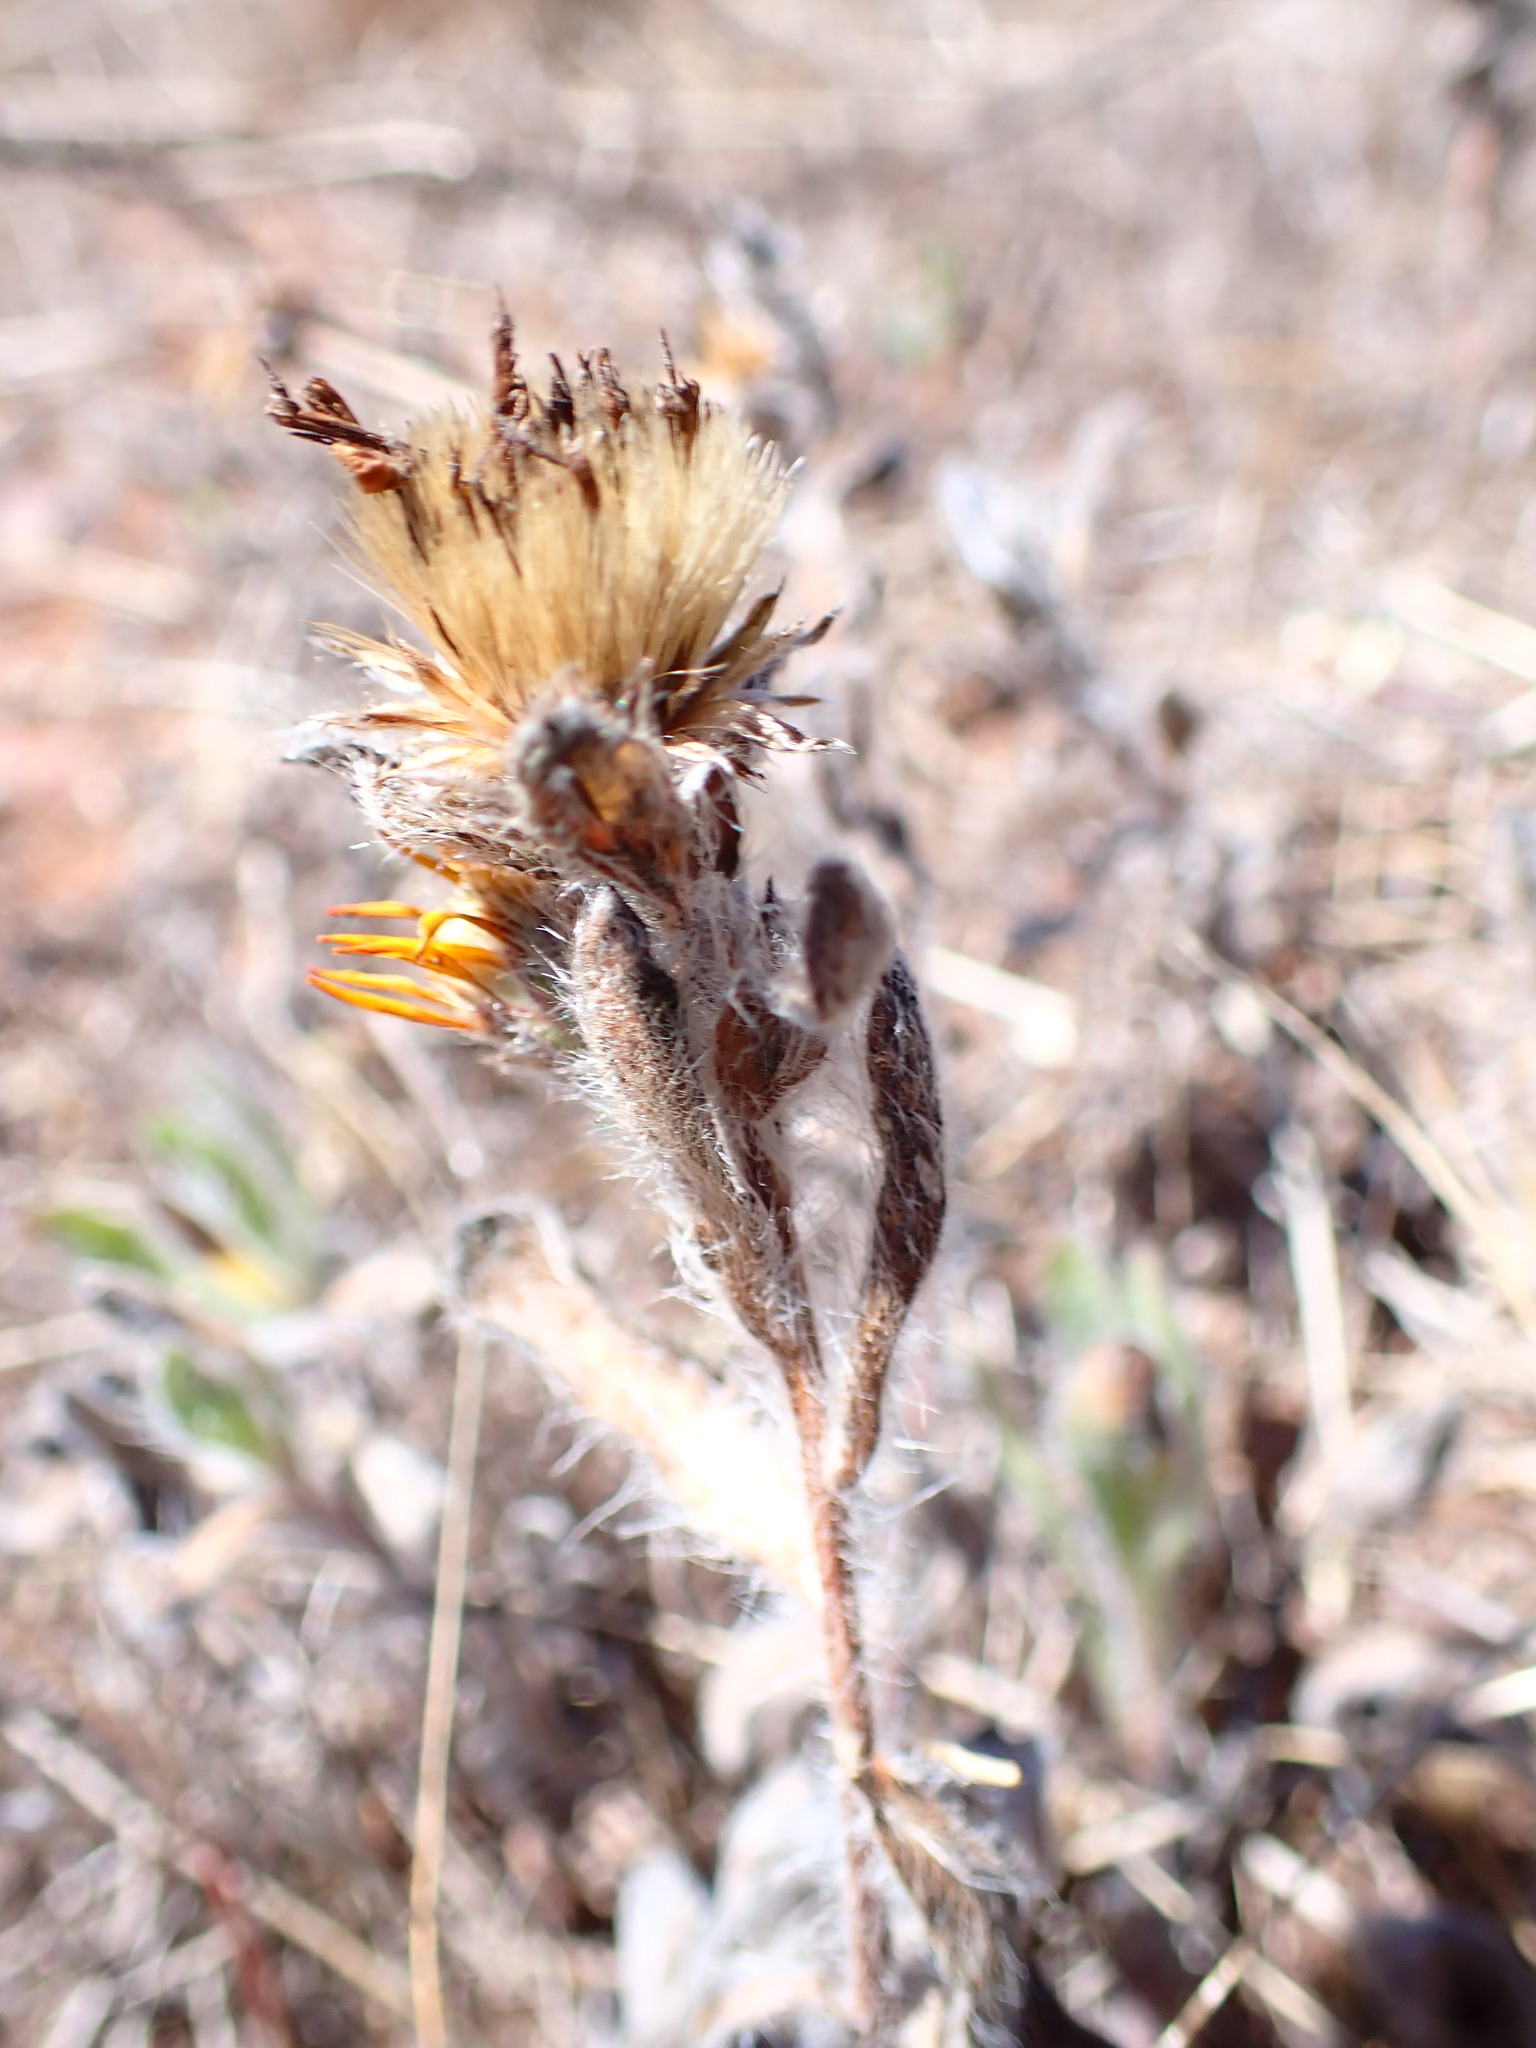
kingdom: Plantae
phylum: Tracheophyta
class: Magnoliopsida
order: Asterales
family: Asteraceae
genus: Heterotheca
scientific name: Heterotheca sessiliflora
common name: Sessile-flower golden-aster
